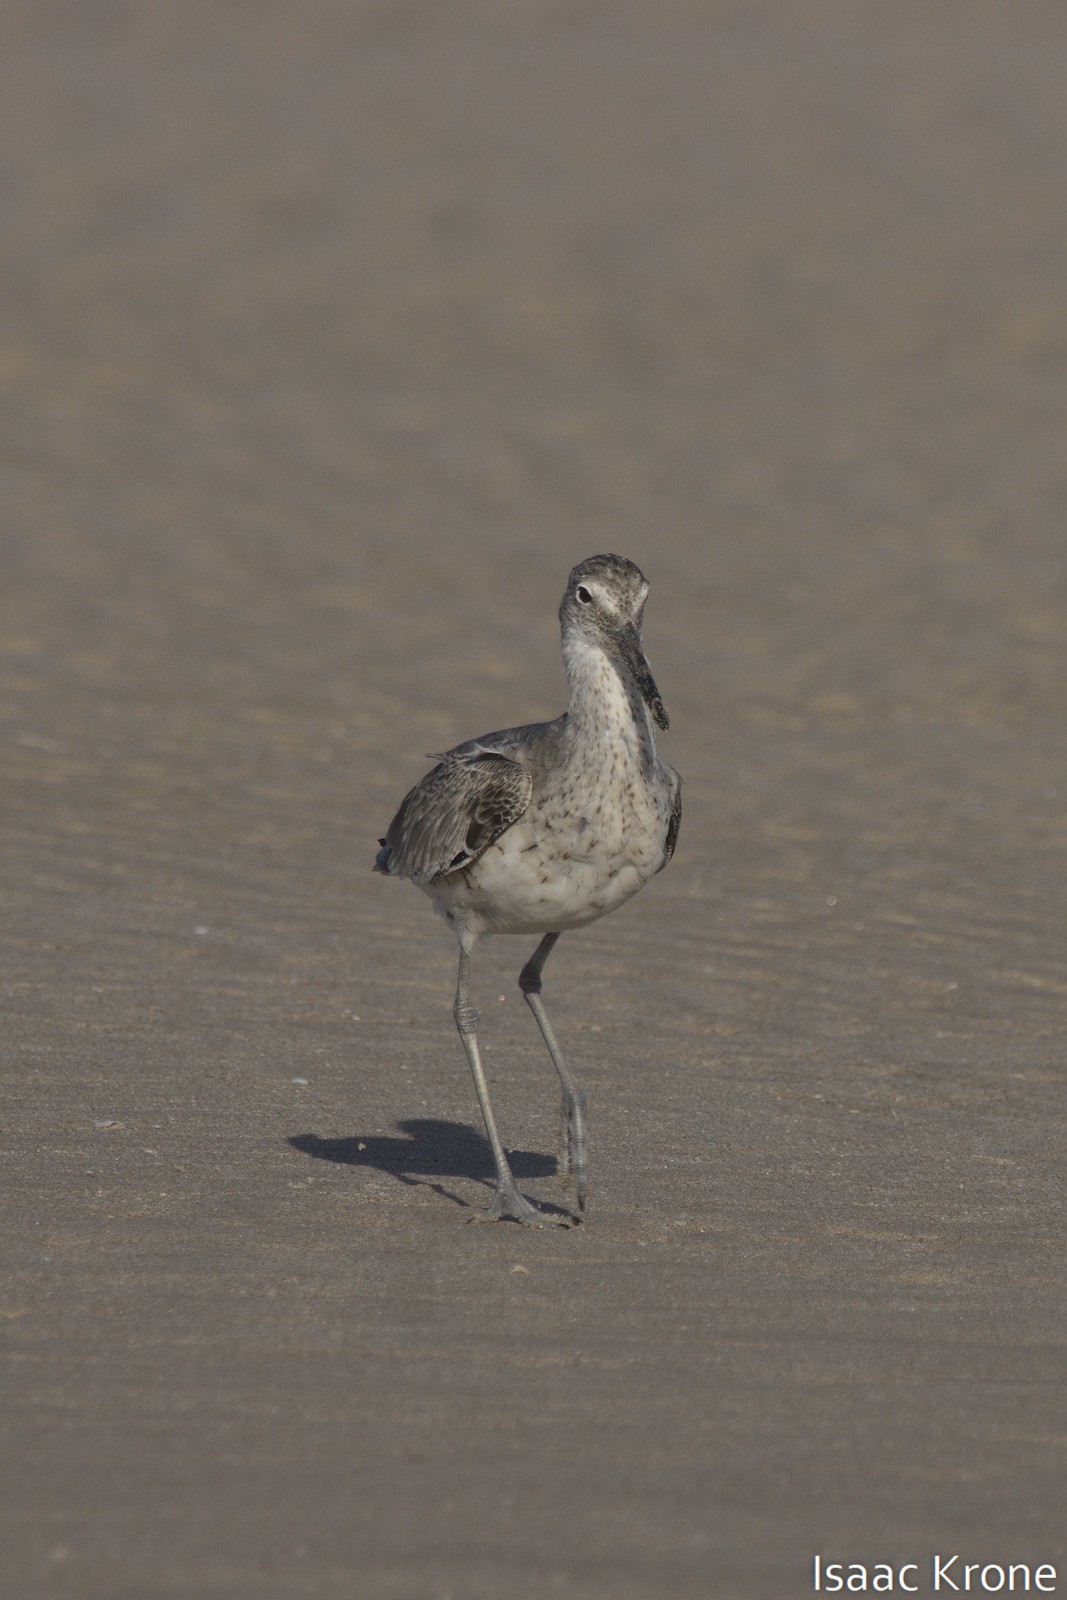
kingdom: Animalia
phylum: Chordata
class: Aves
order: Charadriiformes
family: Scolopacidae
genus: Tringa
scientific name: Tringa semipalmata
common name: Willet
